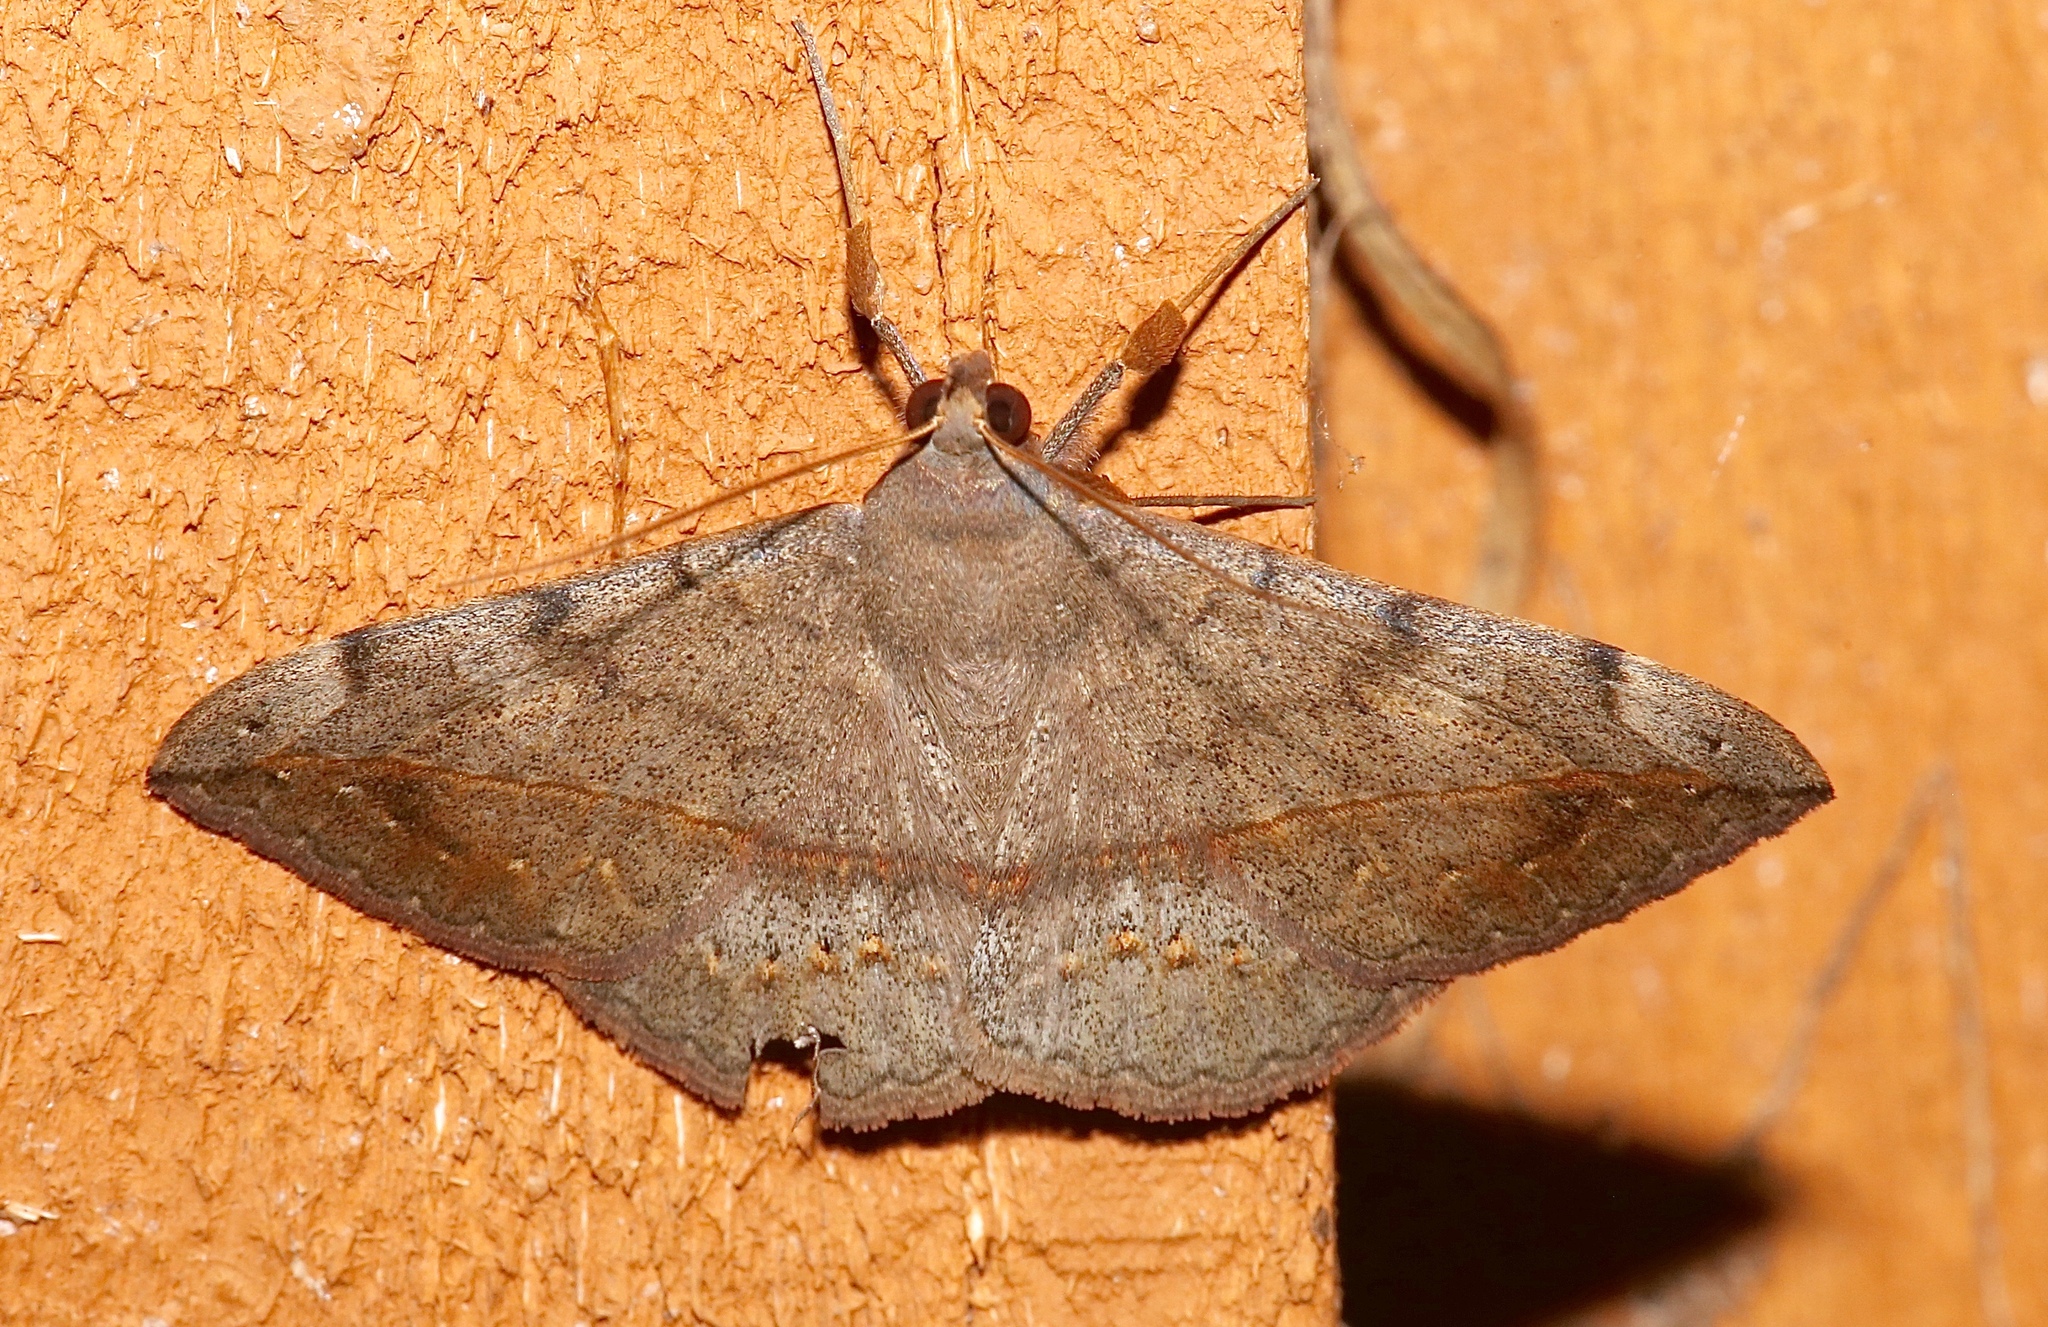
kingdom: Animalia
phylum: Arthropoda
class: Insecta
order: Lepidoptera
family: Erebidae
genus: Anticarsia
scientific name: Anticarsia gemmatalis
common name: Cutworm moth
